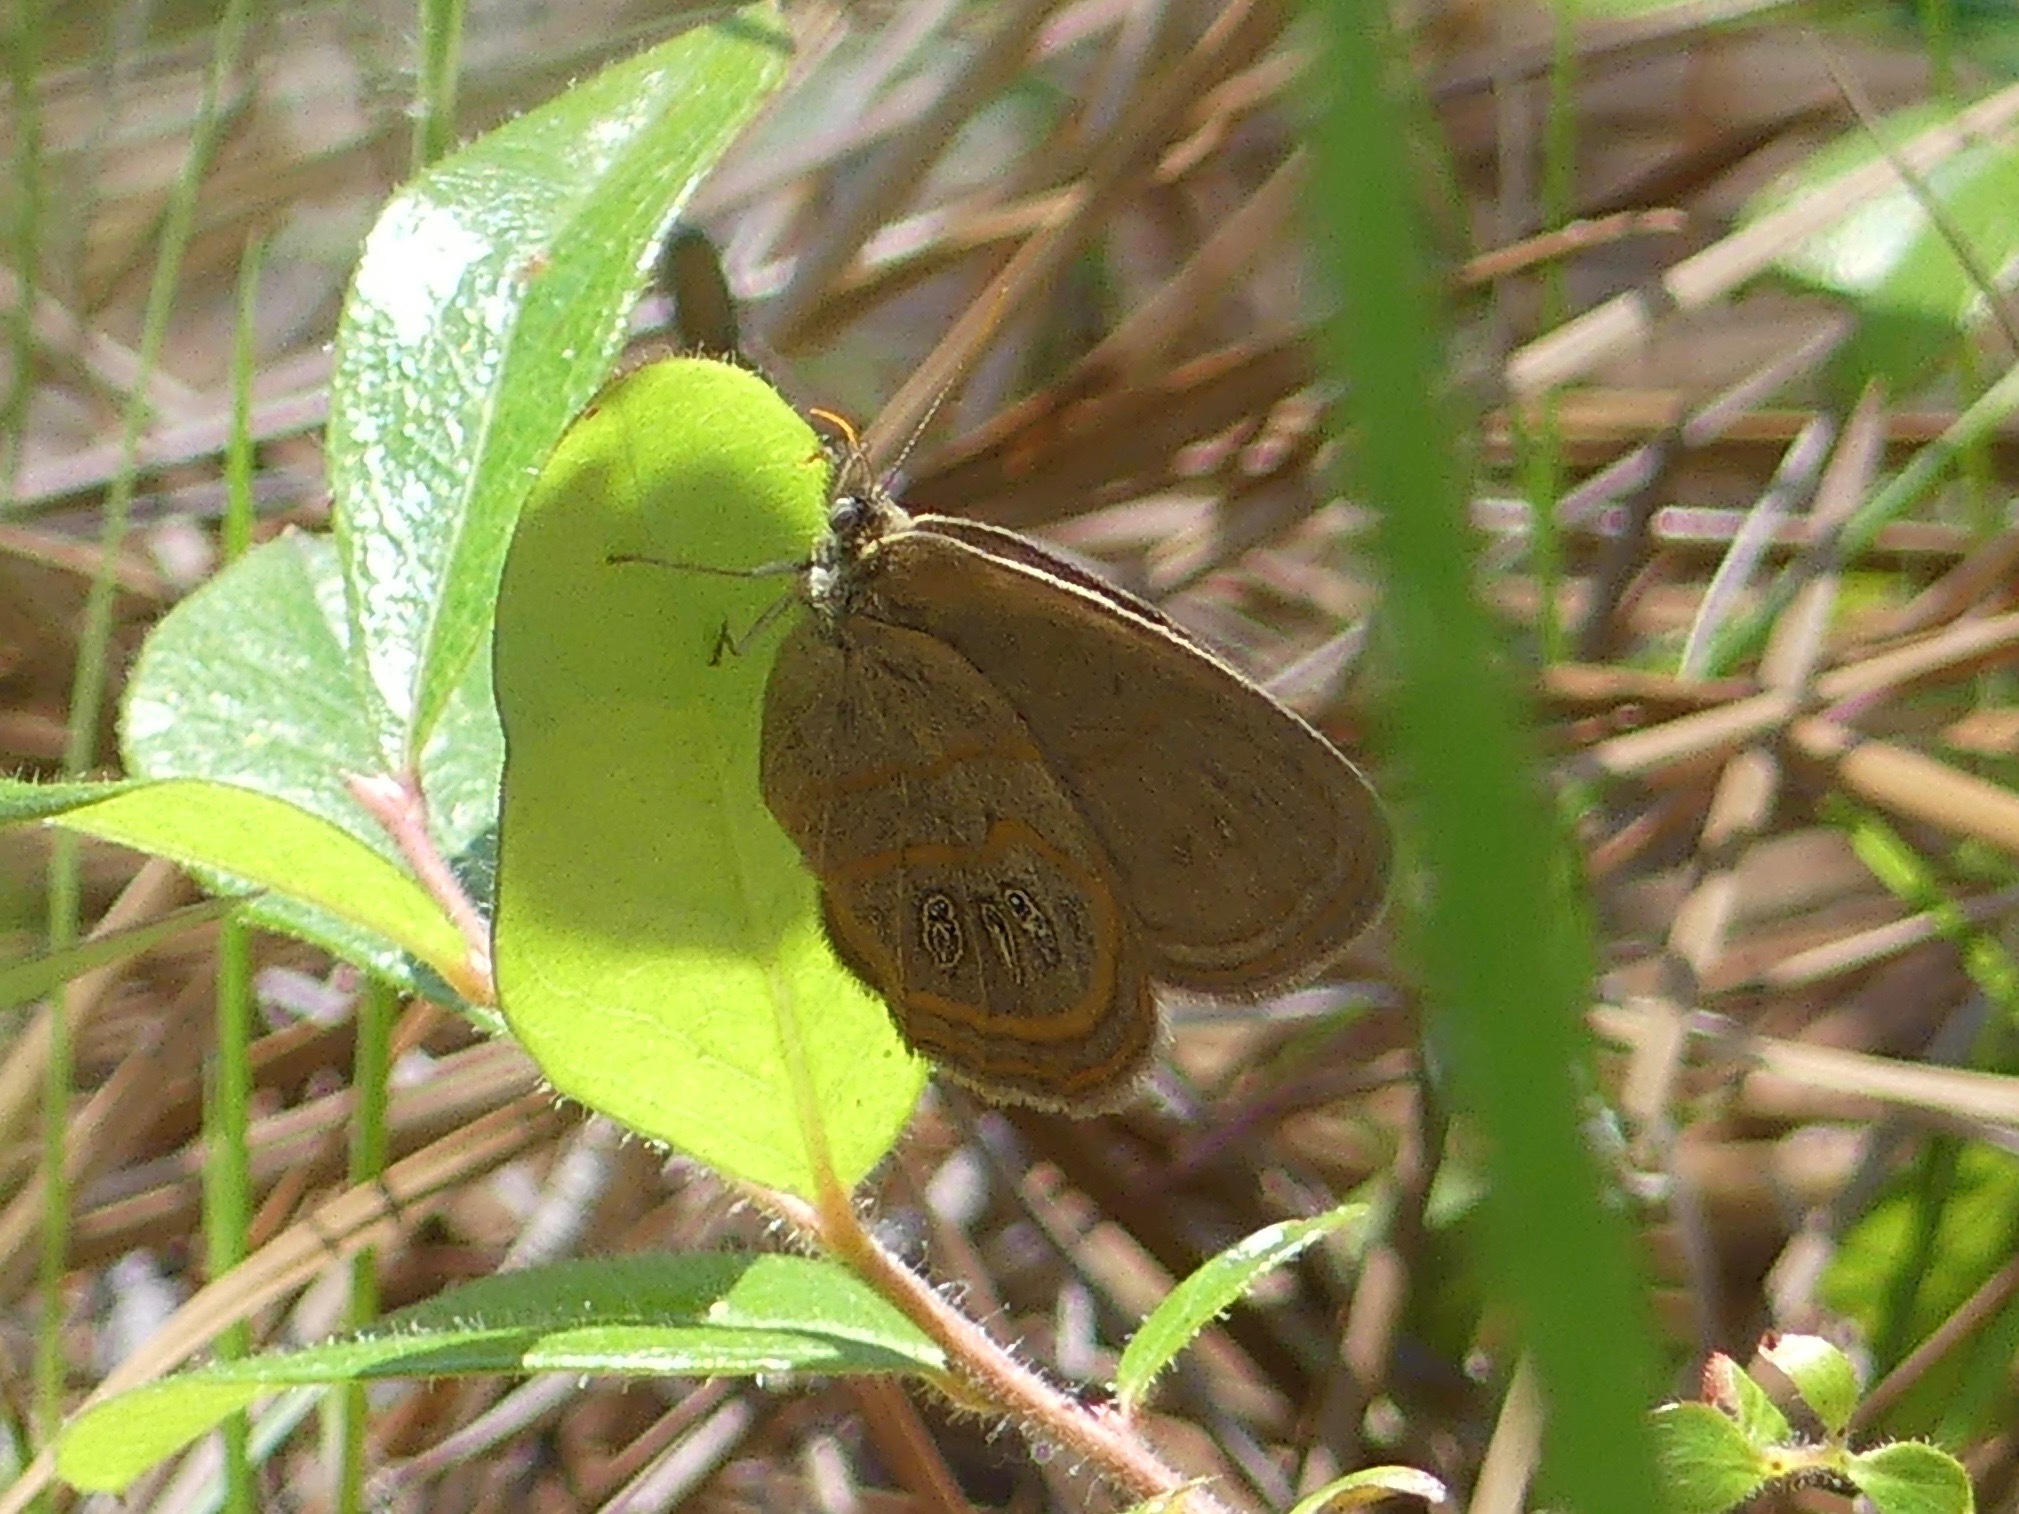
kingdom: Animalia
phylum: Arthropoda
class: Insecta
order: Lepidoptera
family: Nymphalidae
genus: Euptychia
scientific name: Euptychia phocion
